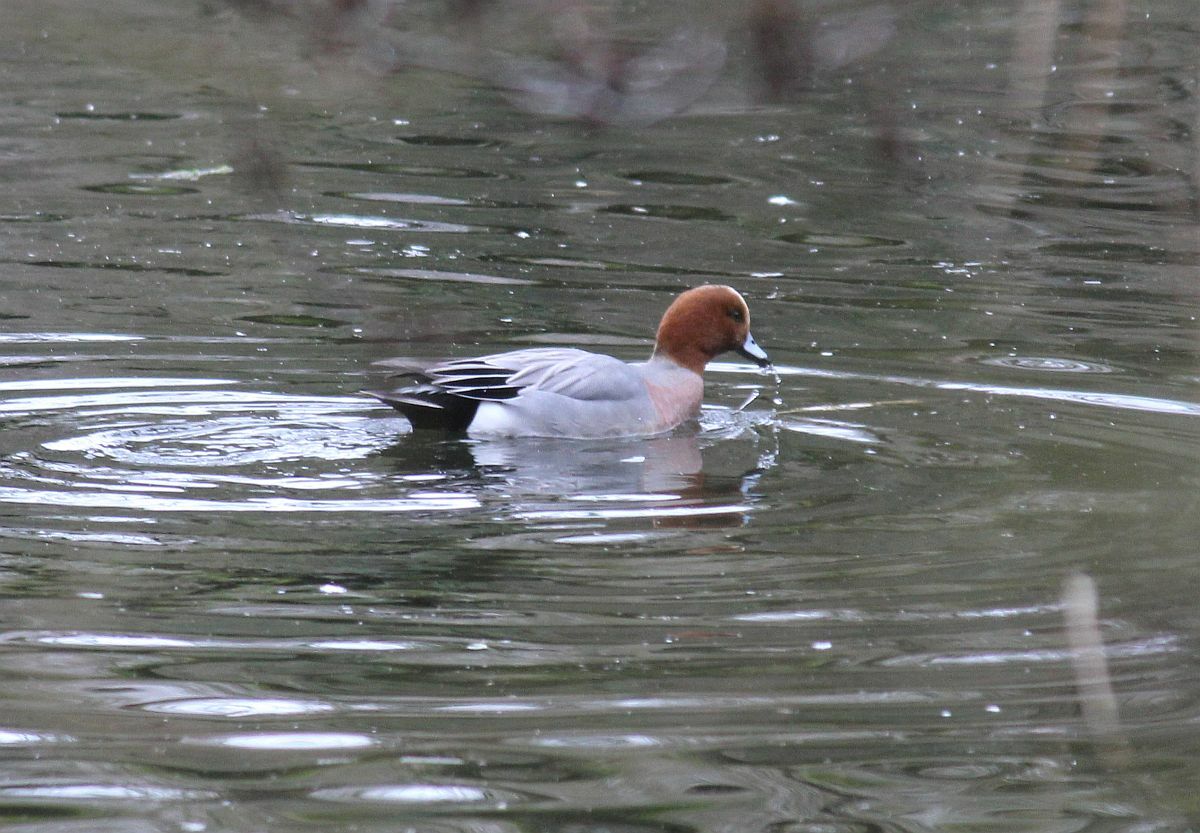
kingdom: Animalia
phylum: Chordata
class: Aves
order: Anseriformes
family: Anatidae
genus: Mareca
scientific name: Mareca penelope
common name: Eurasian wigeon
